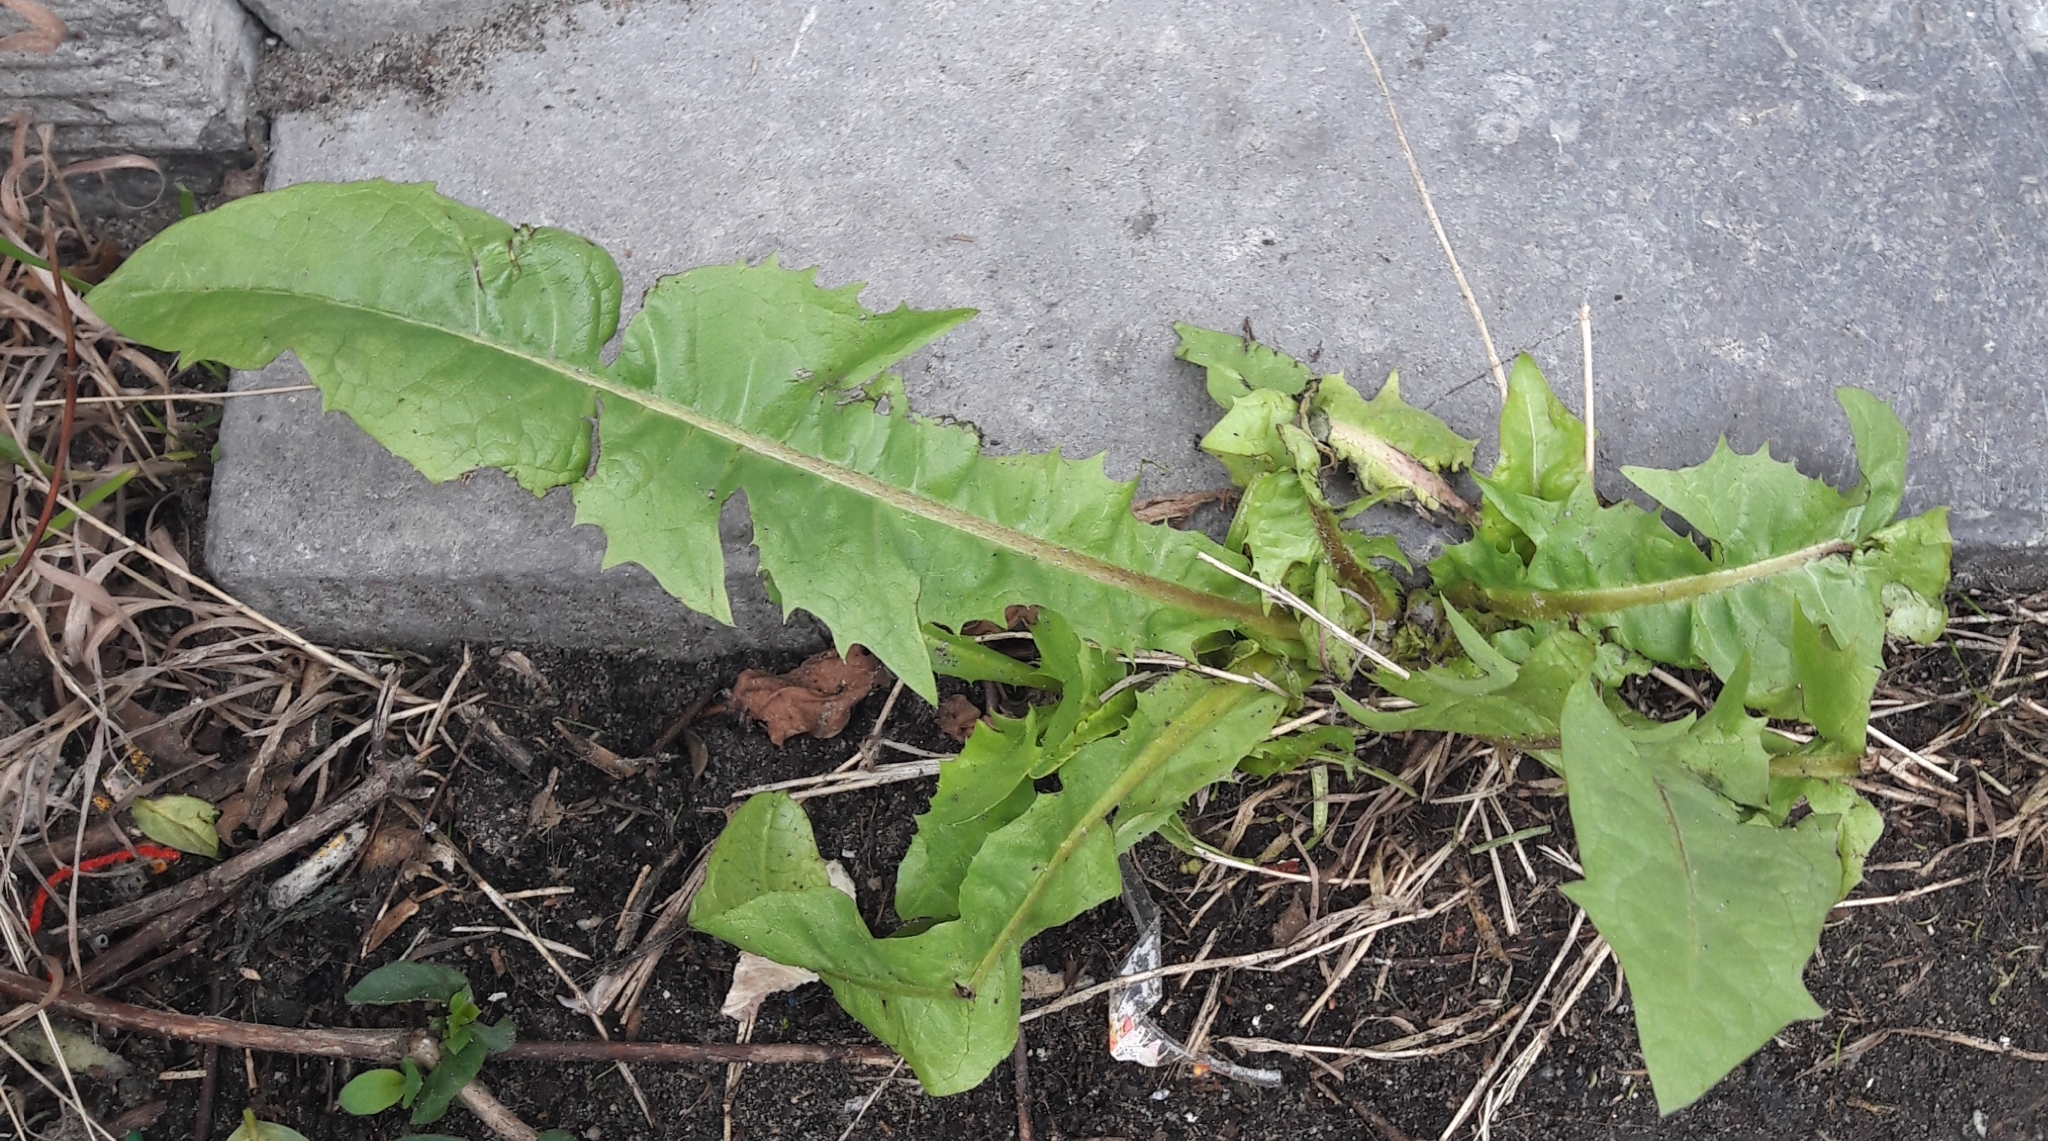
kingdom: Plantae
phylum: Tracheophyta
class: Magnoliopsida
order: Asterales
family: Asteraceae
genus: Taraxacum
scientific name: Taraxacum officinale
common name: Common dandelion
